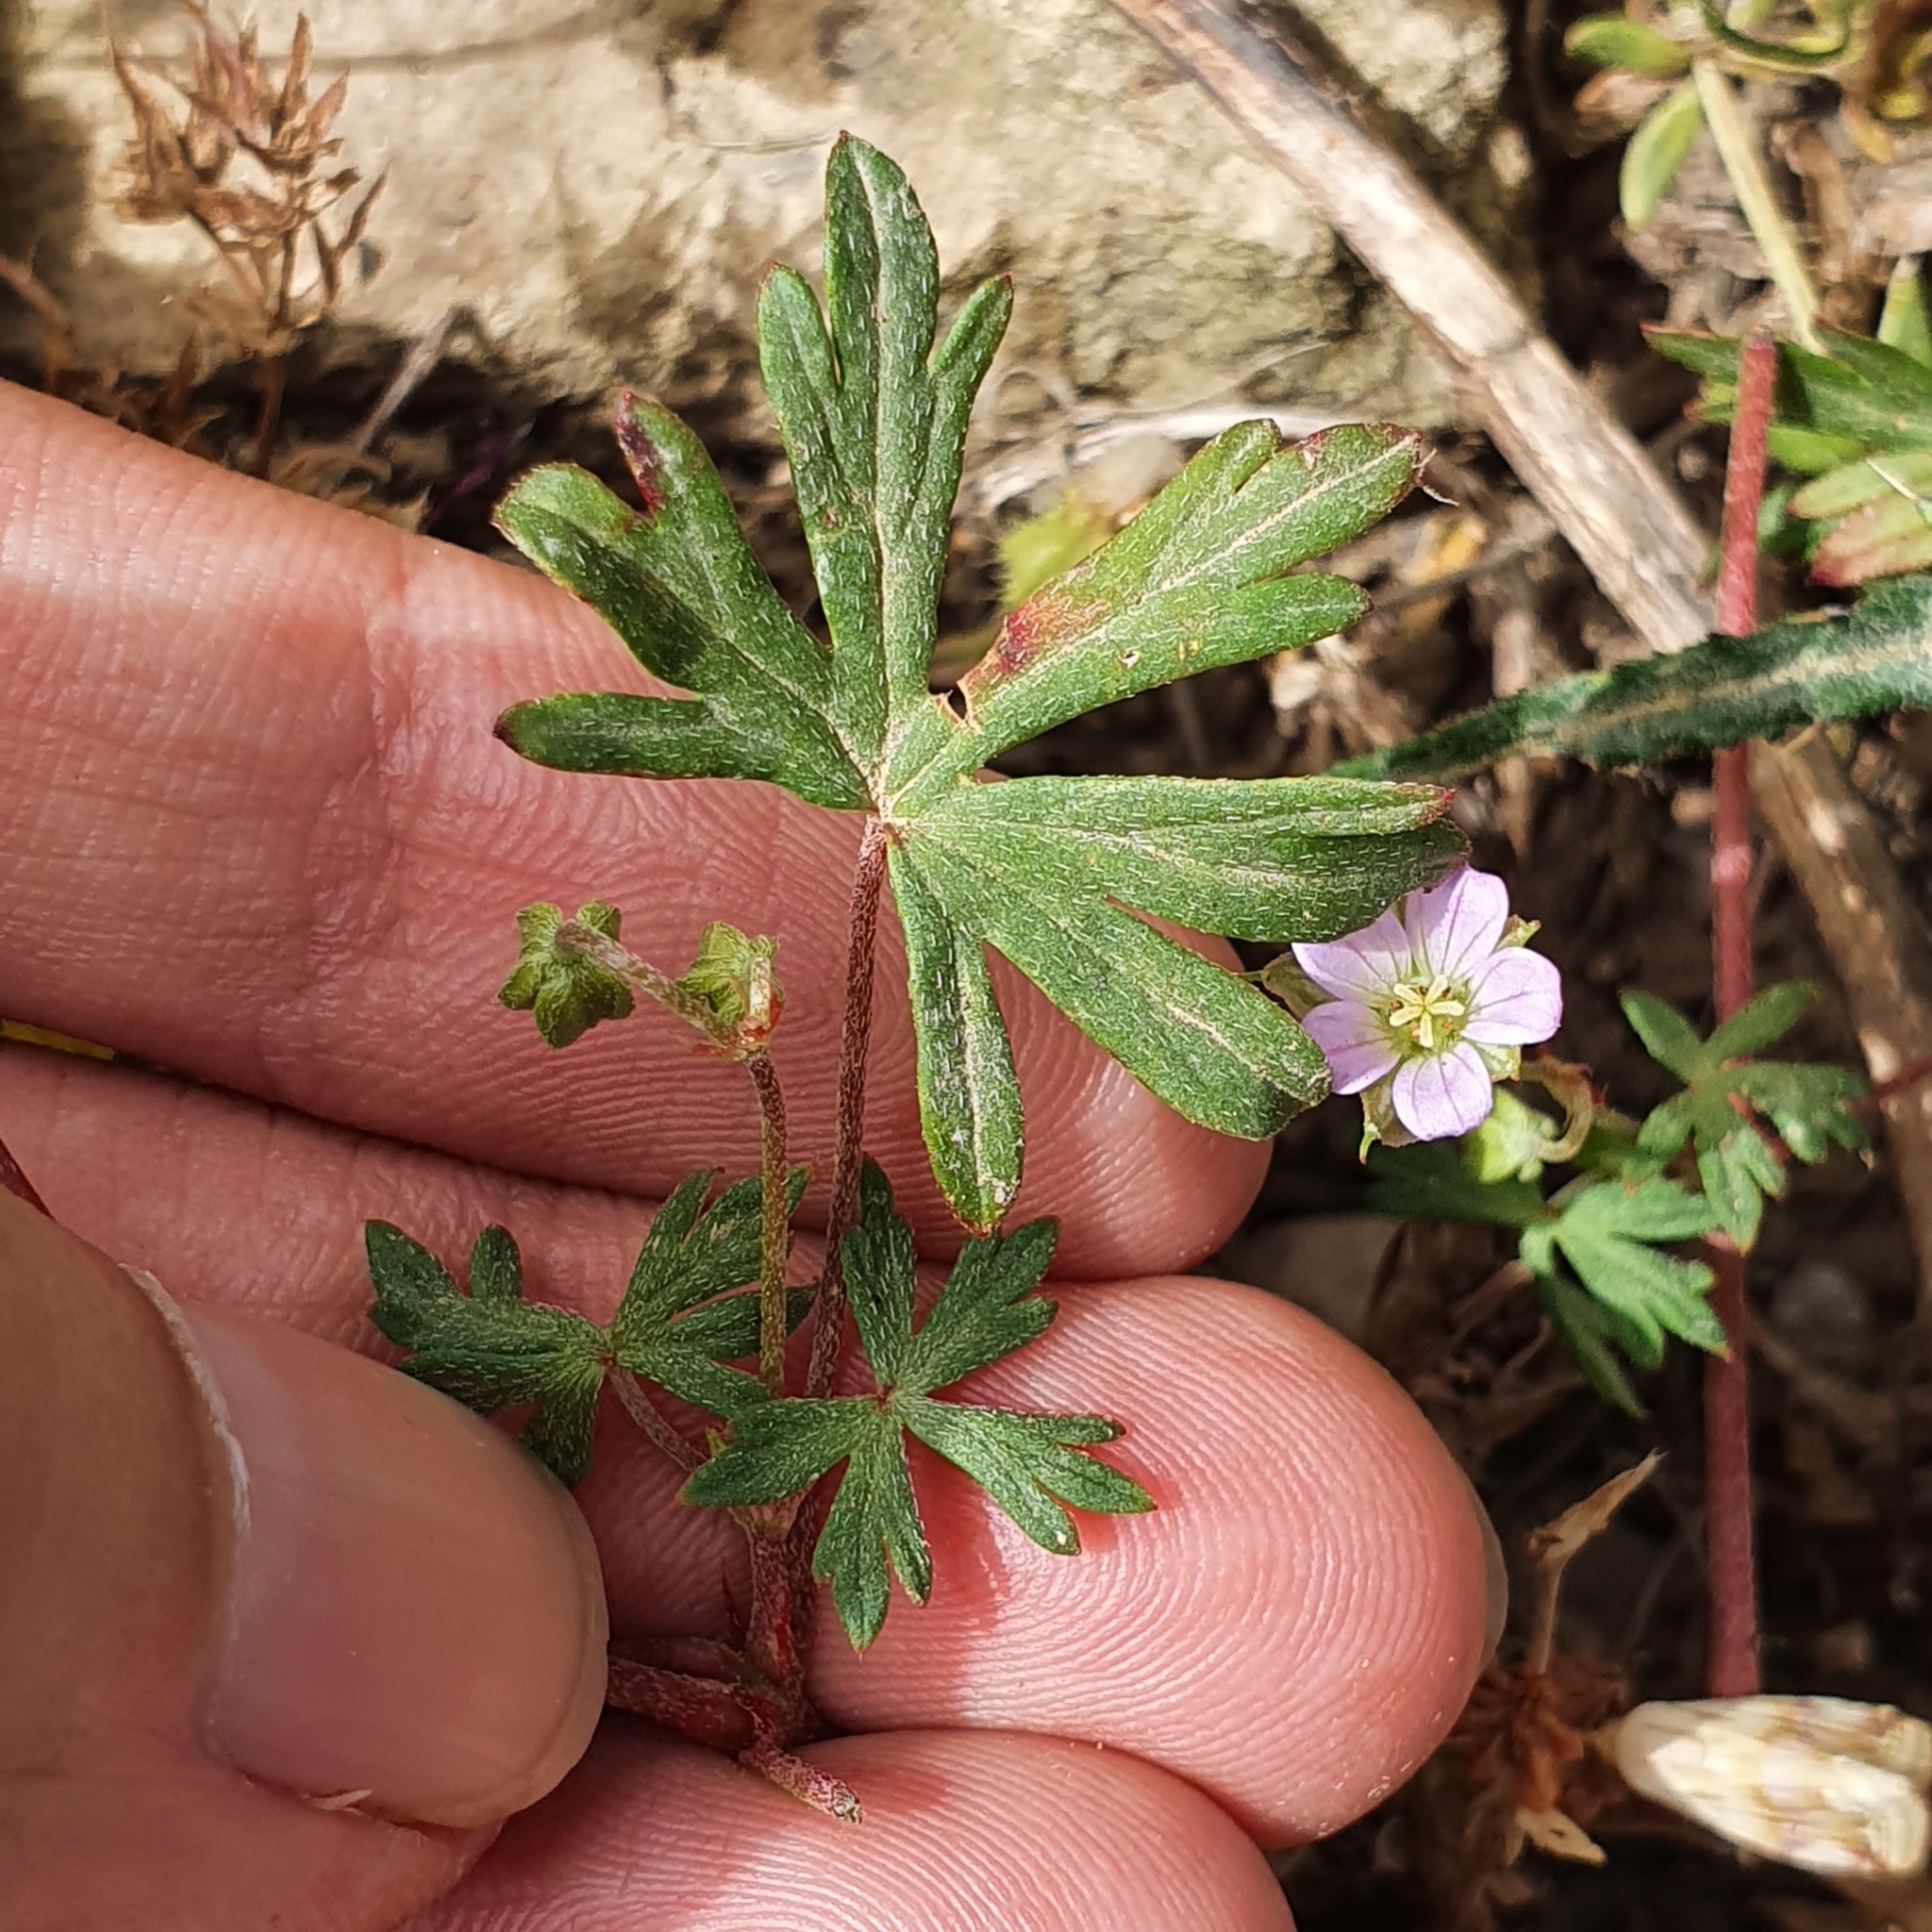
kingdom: Plantae
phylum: Tracheophyta
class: Magnoliopsida
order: Geraniales
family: Geraniaceae
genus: Geranium
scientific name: Geranium columbinum
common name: Long-stalked crane's-bill
